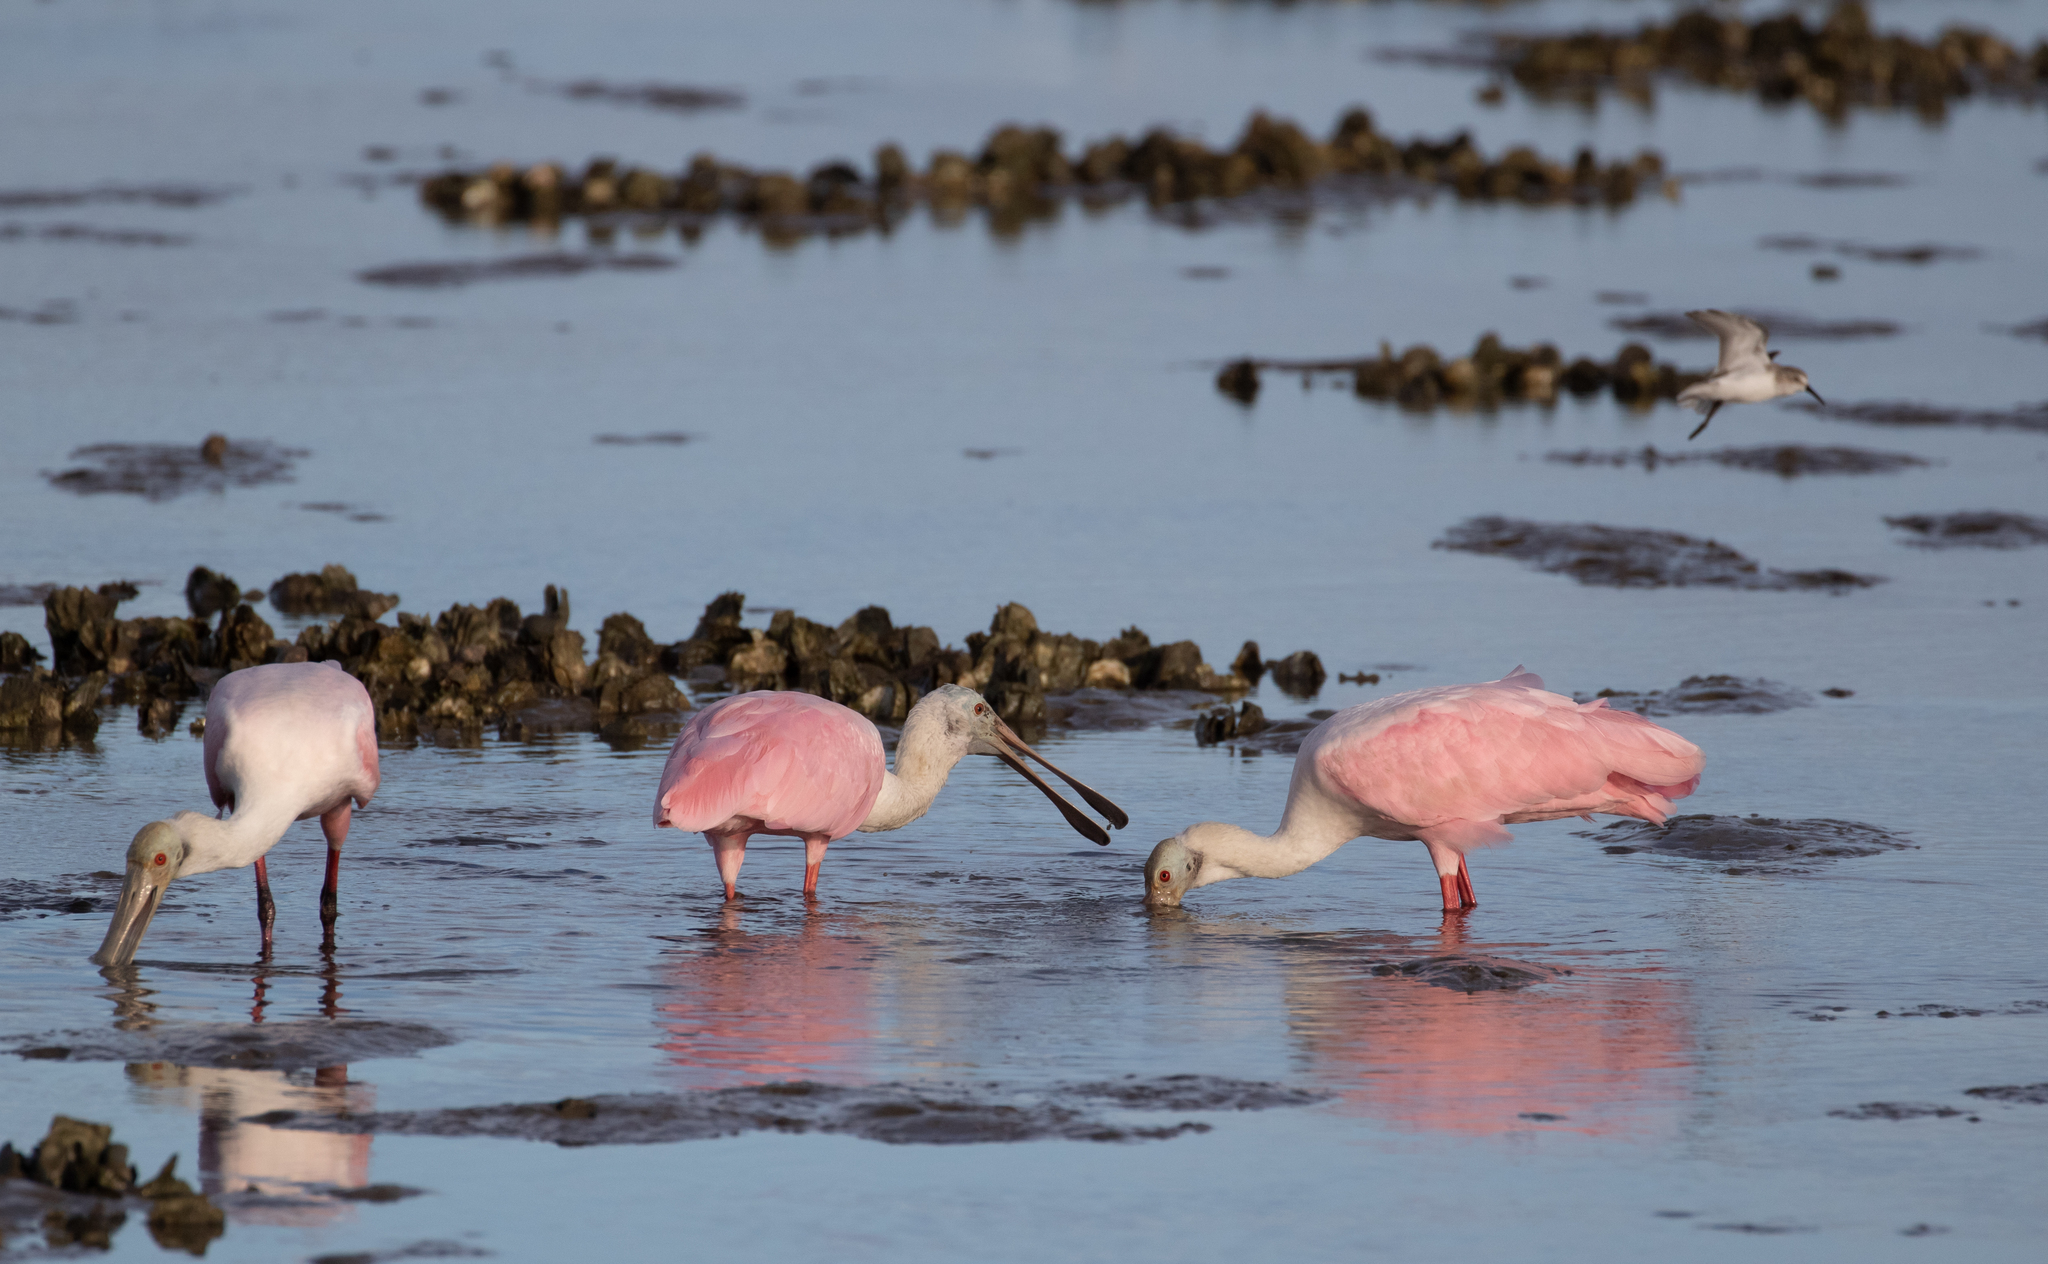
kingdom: Animalia
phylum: Chordata
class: Aves
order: Pelecaniformes
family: Threskiornithidae
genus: Platalea
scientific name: Platalea ajaja
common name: Roseate spoonbill
